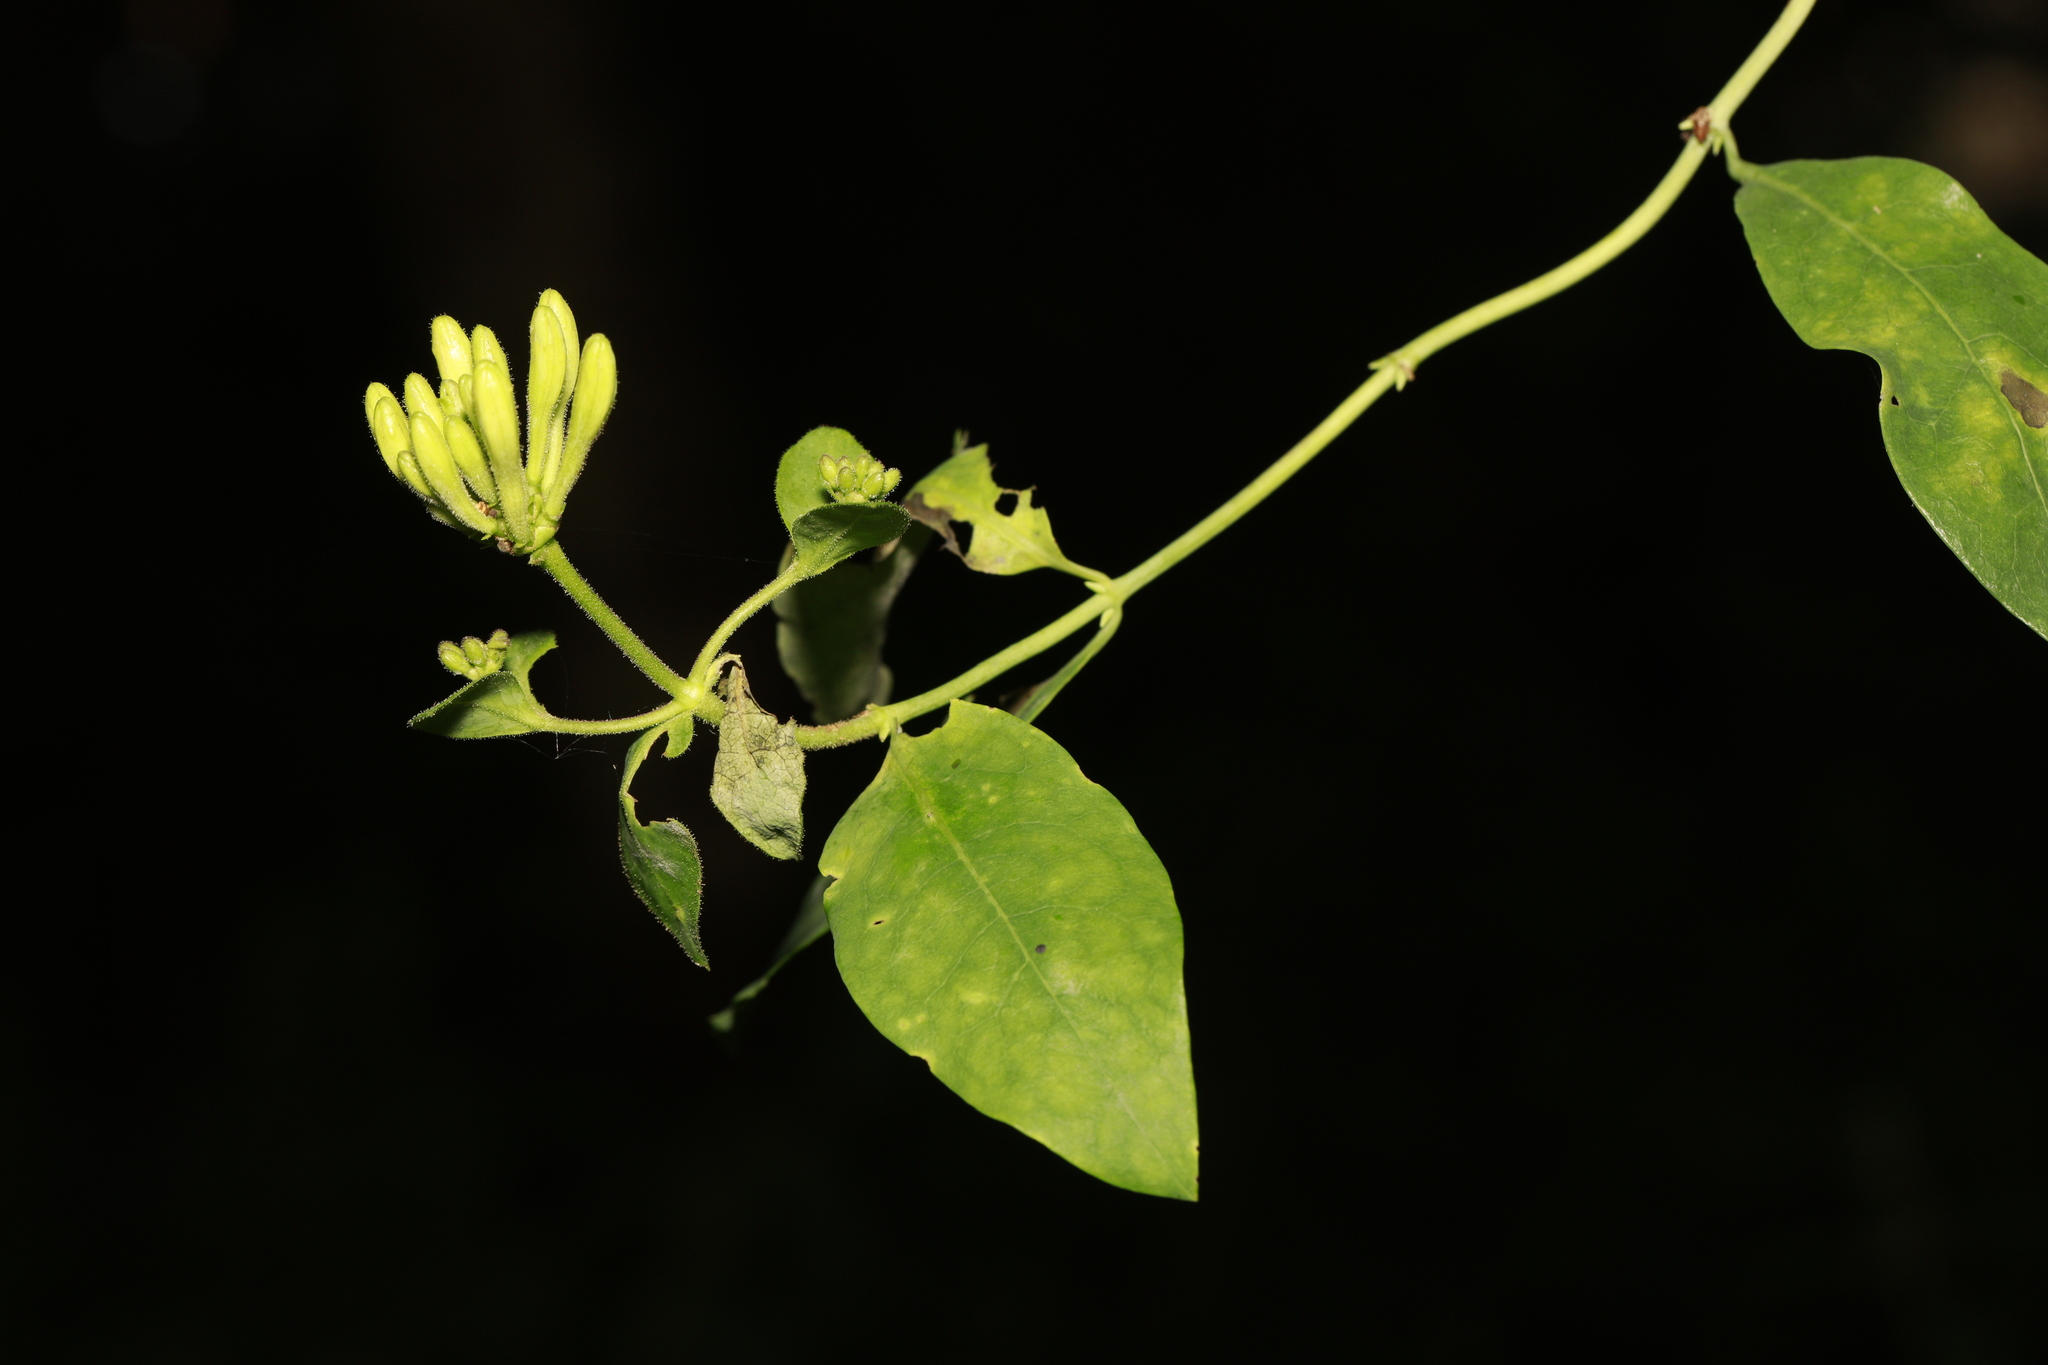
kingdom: Plantae
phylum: Tracheophyta
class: Magnoliopsida
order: Dipsacales
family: Caprifoliaceae
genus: Lonicera
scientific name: Lonicera periclymenum
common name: European honeysuckle
